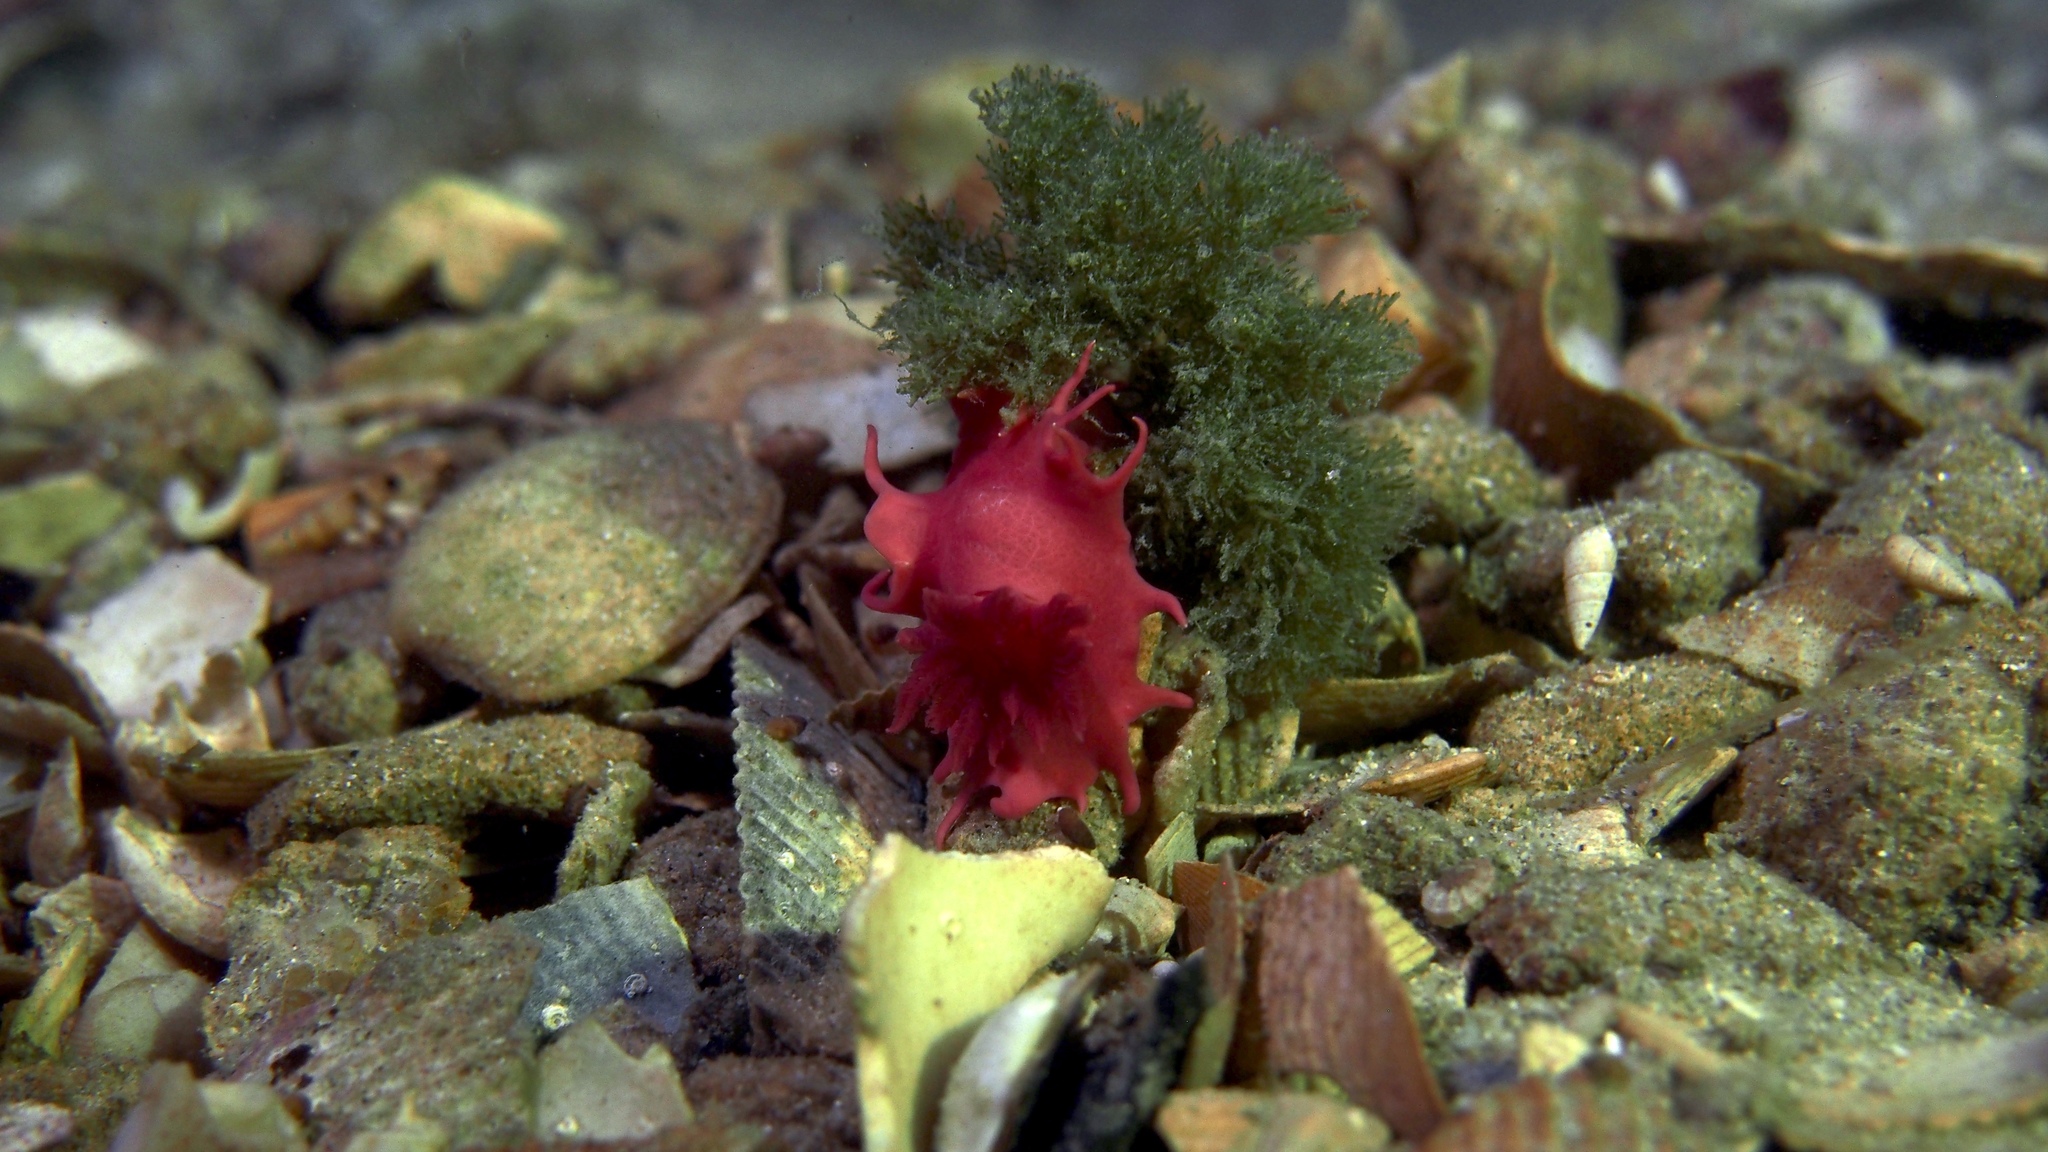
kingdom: Animalia
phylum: Mollusca
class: Gastropoda
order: Nudibranchia
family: Chromodorididae
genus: Verconia
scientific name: Verconia verconis
